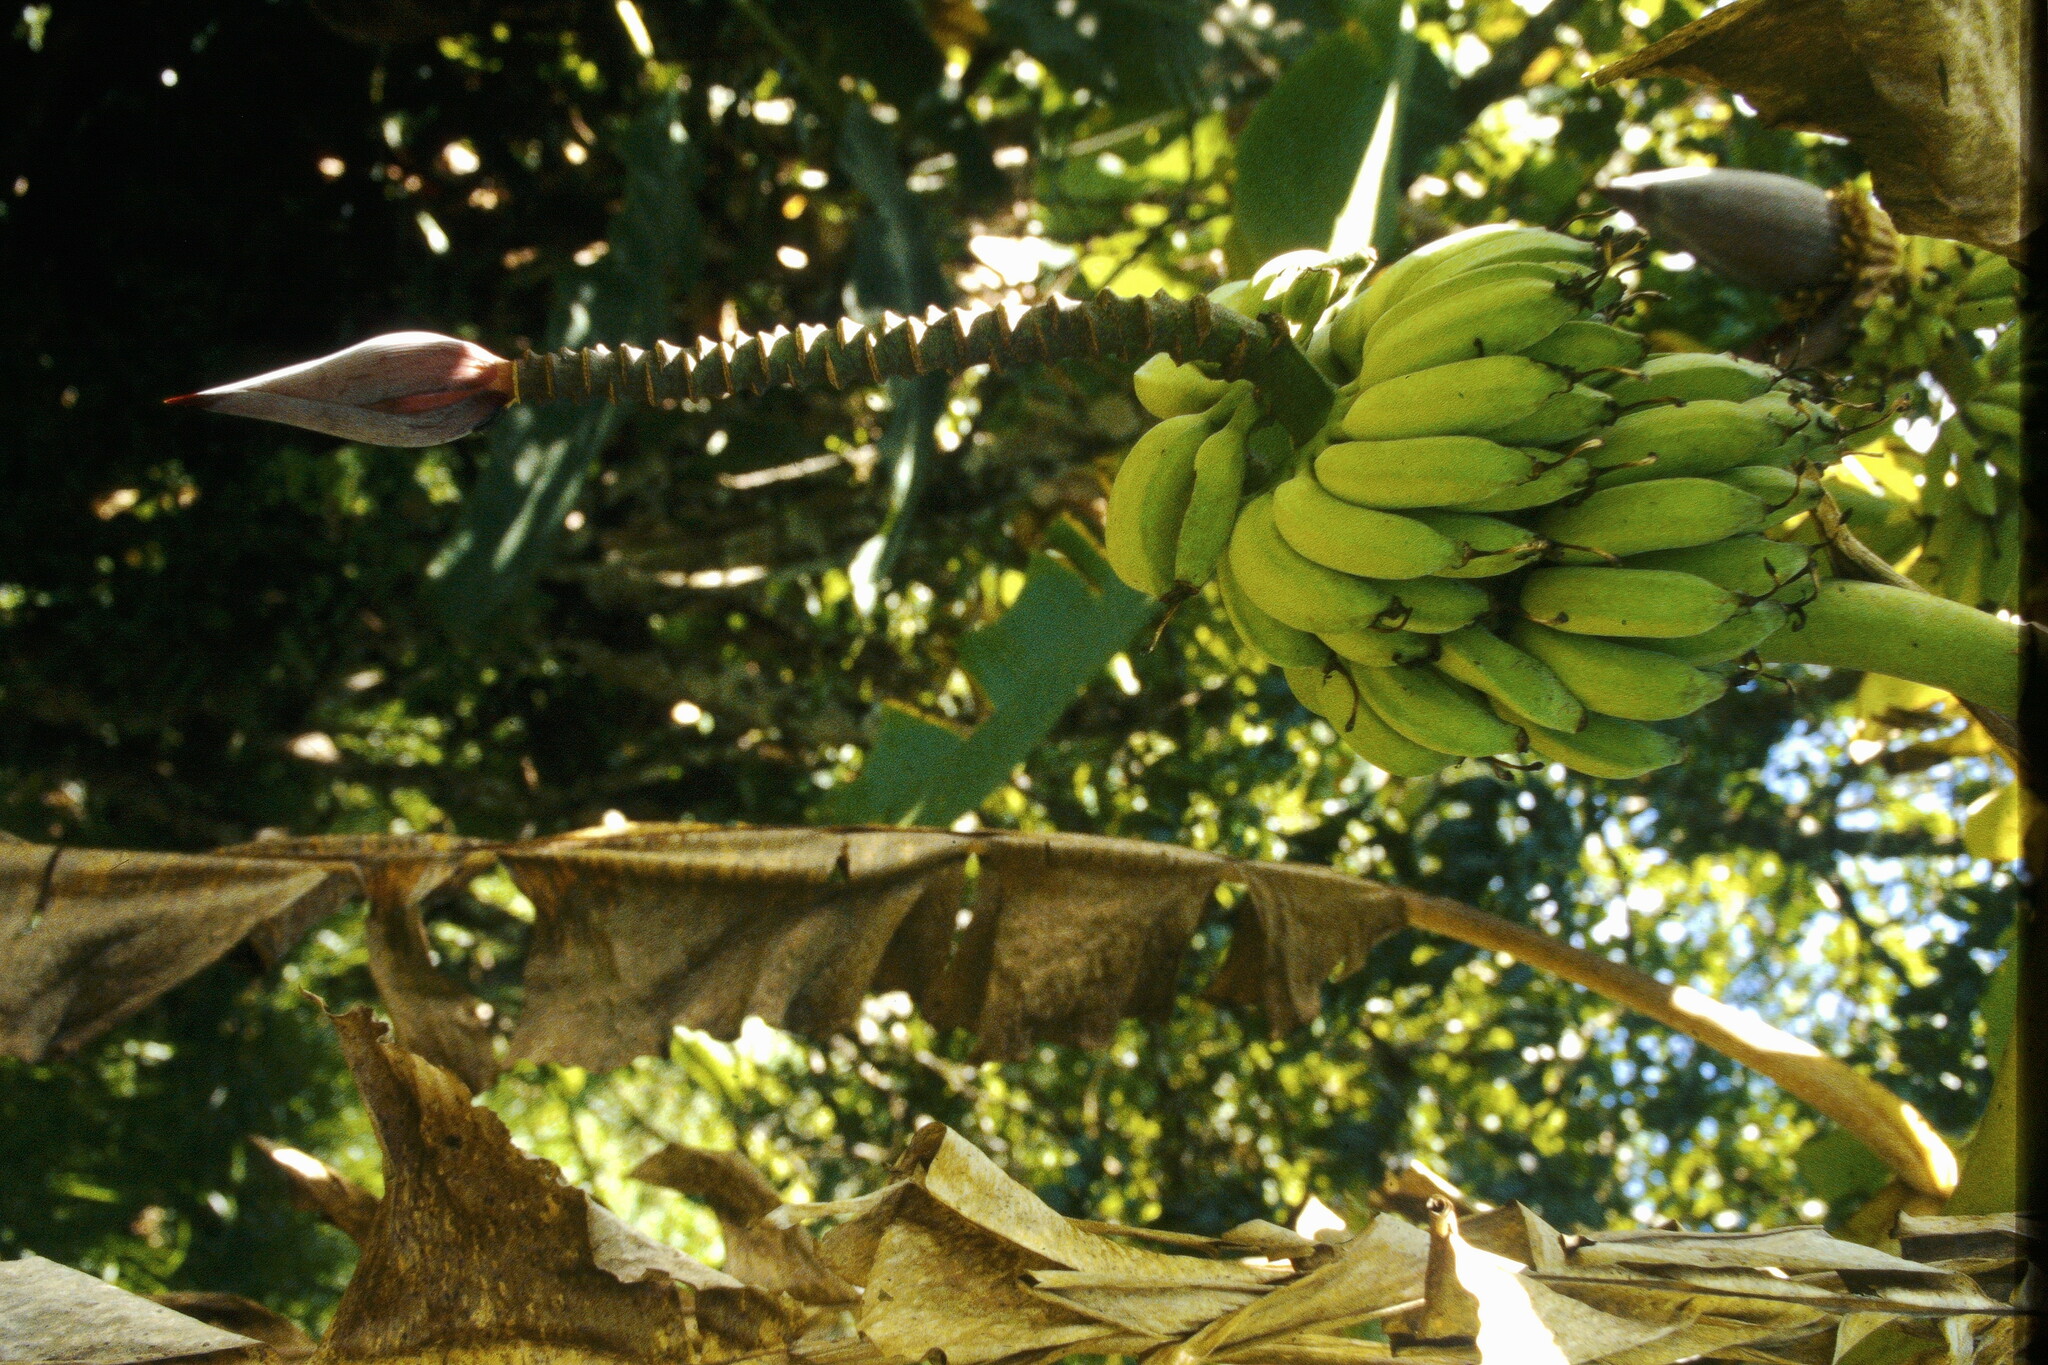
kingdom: Plantae
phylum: Tracheophyta
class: Liliopsida
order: Zingiberales
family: Musaceae
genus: Musa
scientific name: Musa paradisiaca
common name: French plantain
